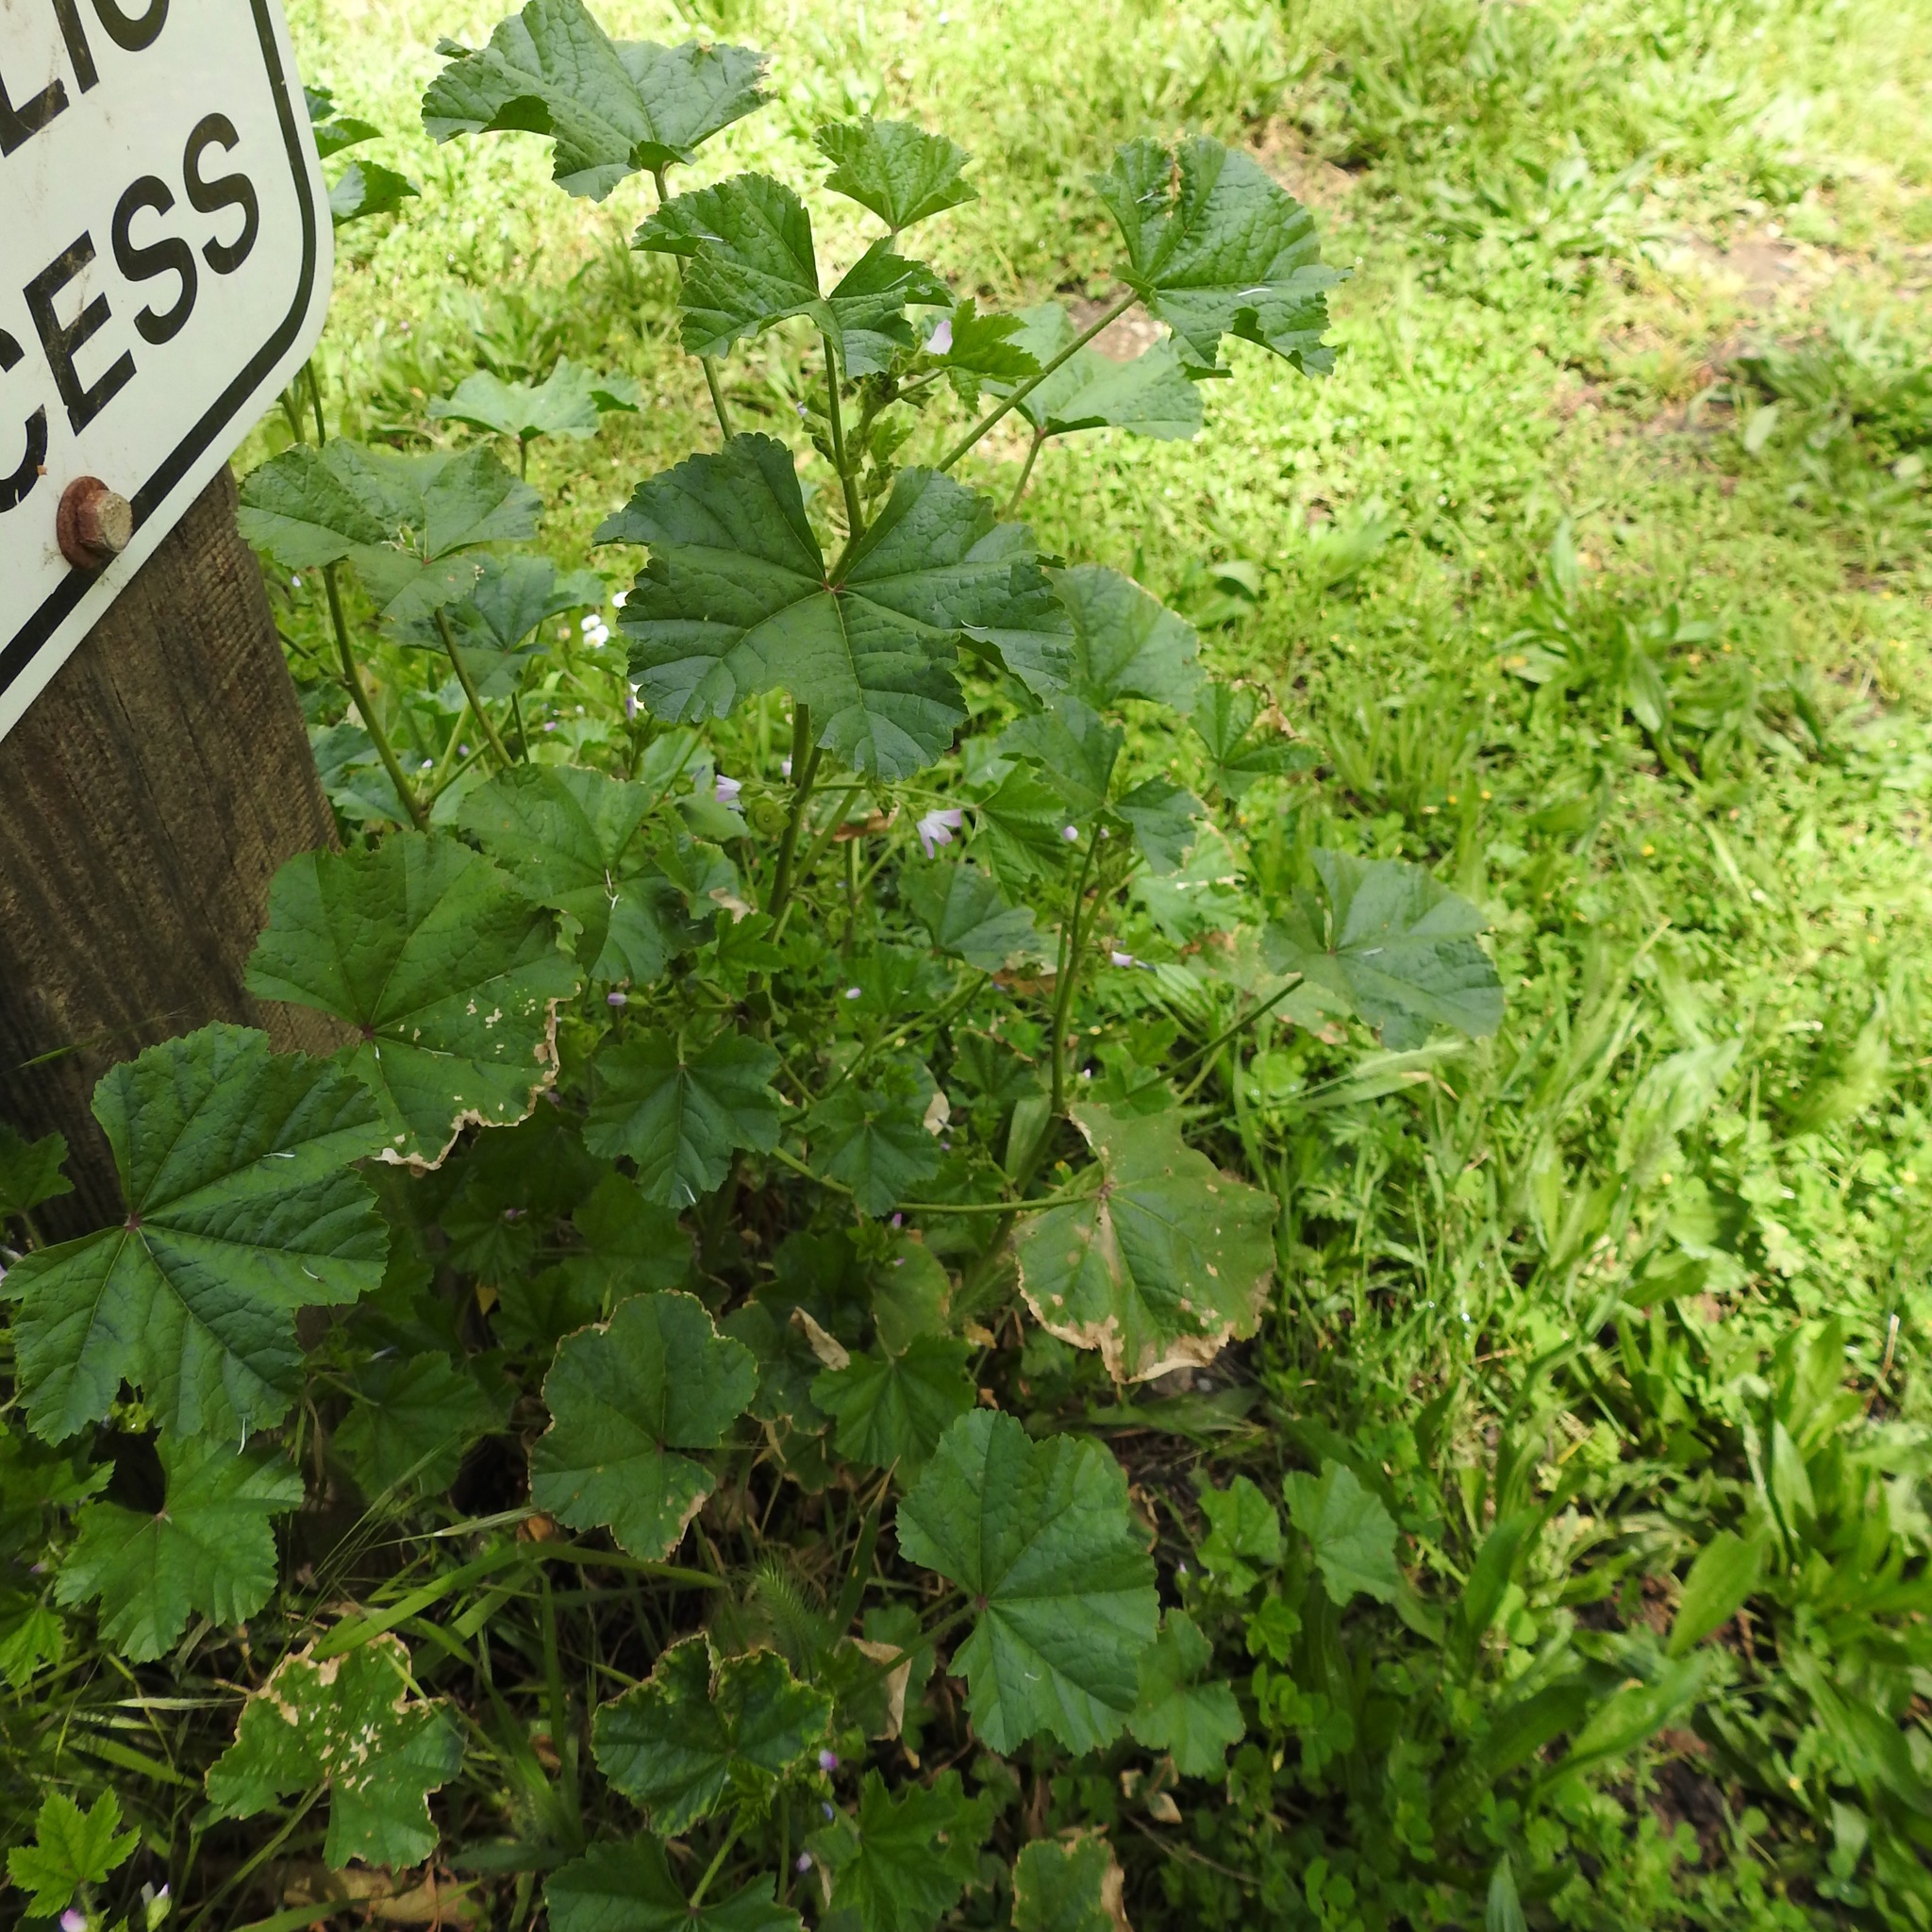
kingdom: Plantae
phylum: Tracheophyta
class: Magnoliopsida
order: Malvales
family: Malvaceae
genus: Malva
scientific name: Malva nicaeensis
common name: French mallow
